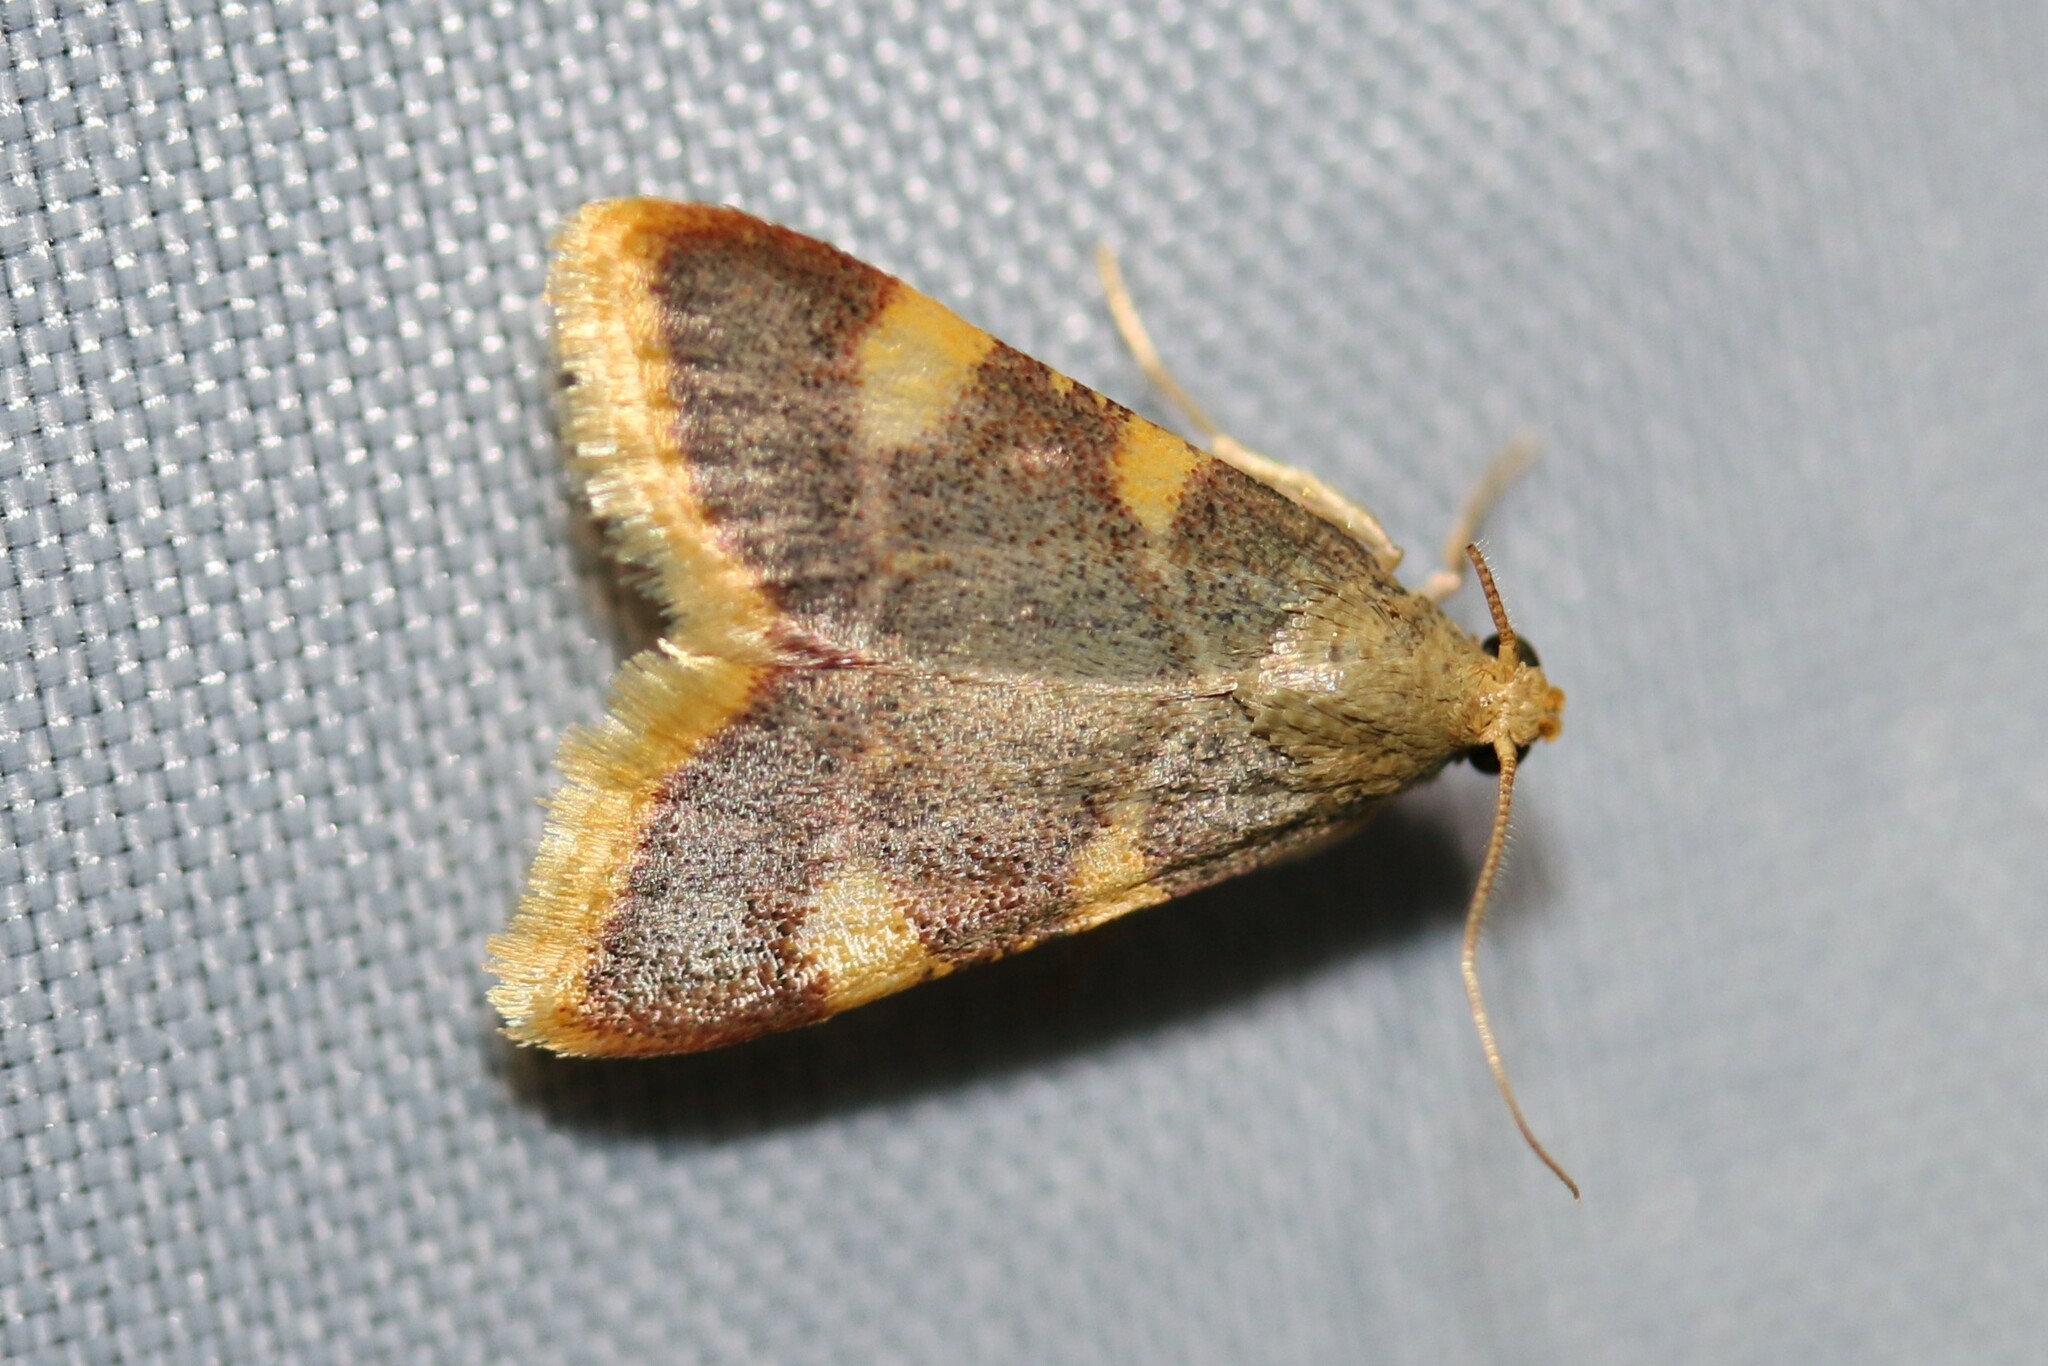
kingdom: Animalia
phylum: Arthropoda
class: Insecta
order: Lepidoptera
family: Pyralidae
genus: Hypsopygia
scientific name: Hypsopygia costalis
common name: Gold triangle
